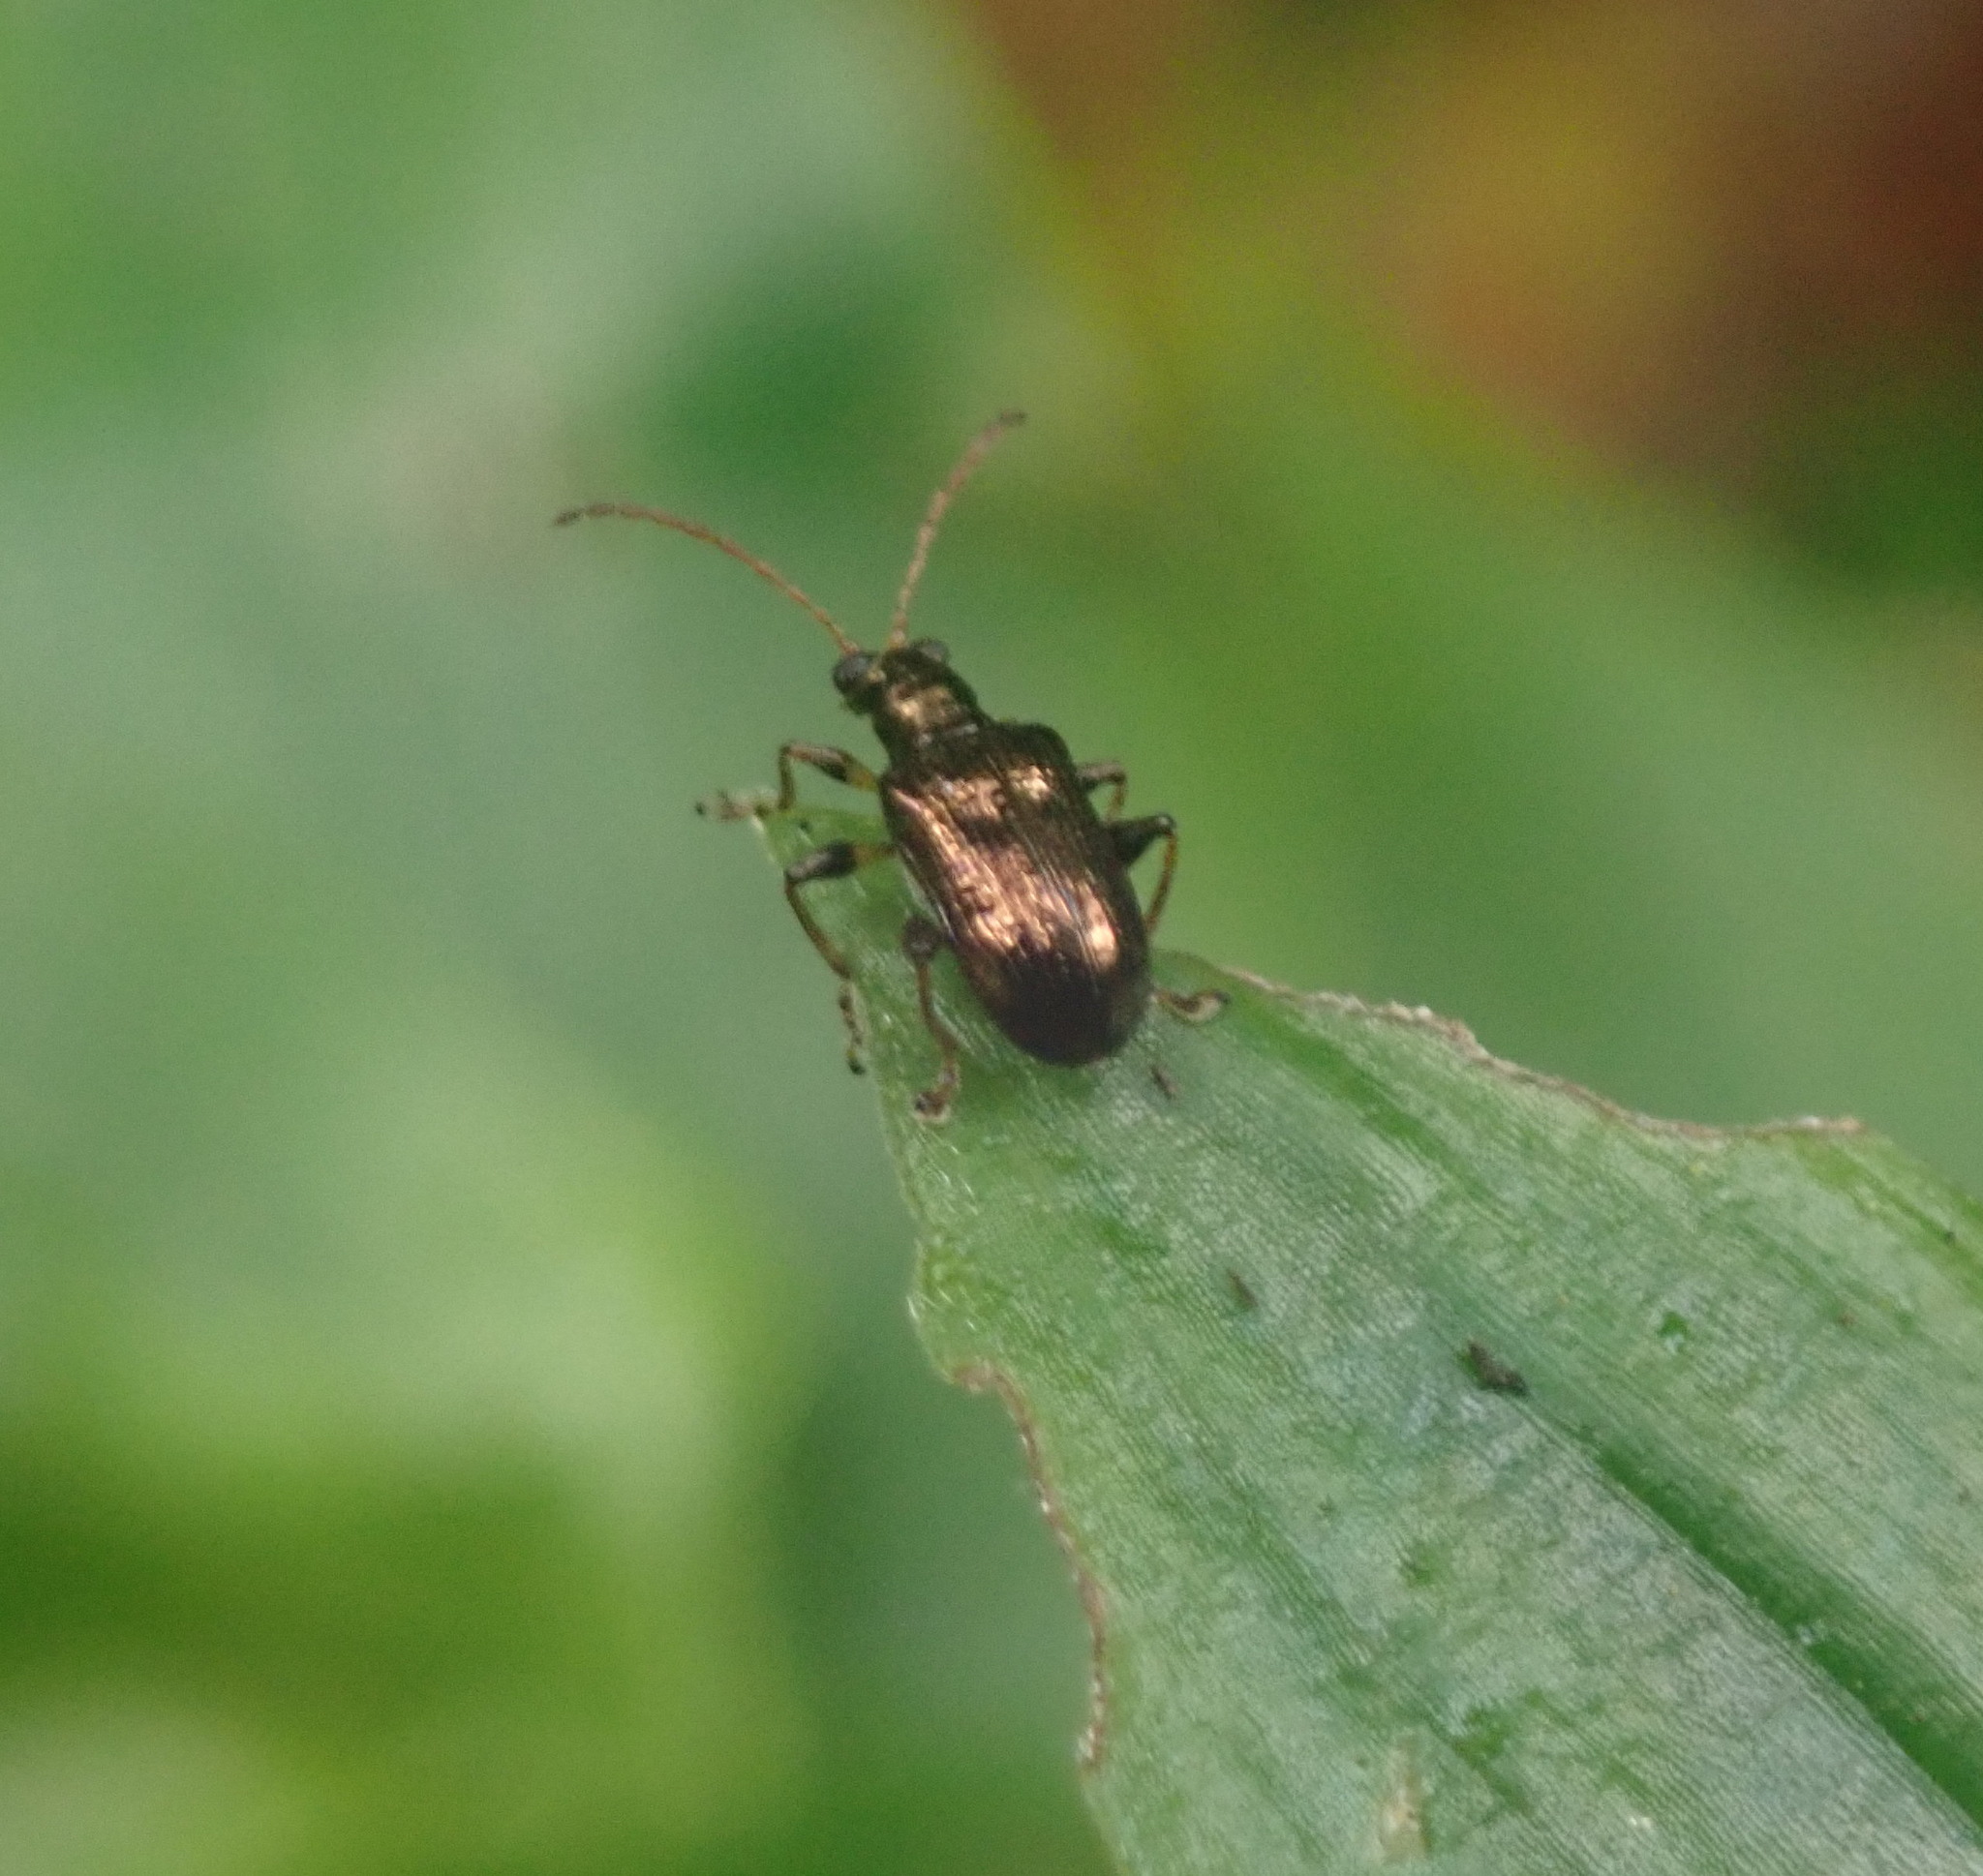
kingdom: Animalia
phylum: Arthropoda
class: Insecta
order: Coleoptera
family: Chrysomelidae
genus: Neolema
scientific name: Neolema ogloblini
